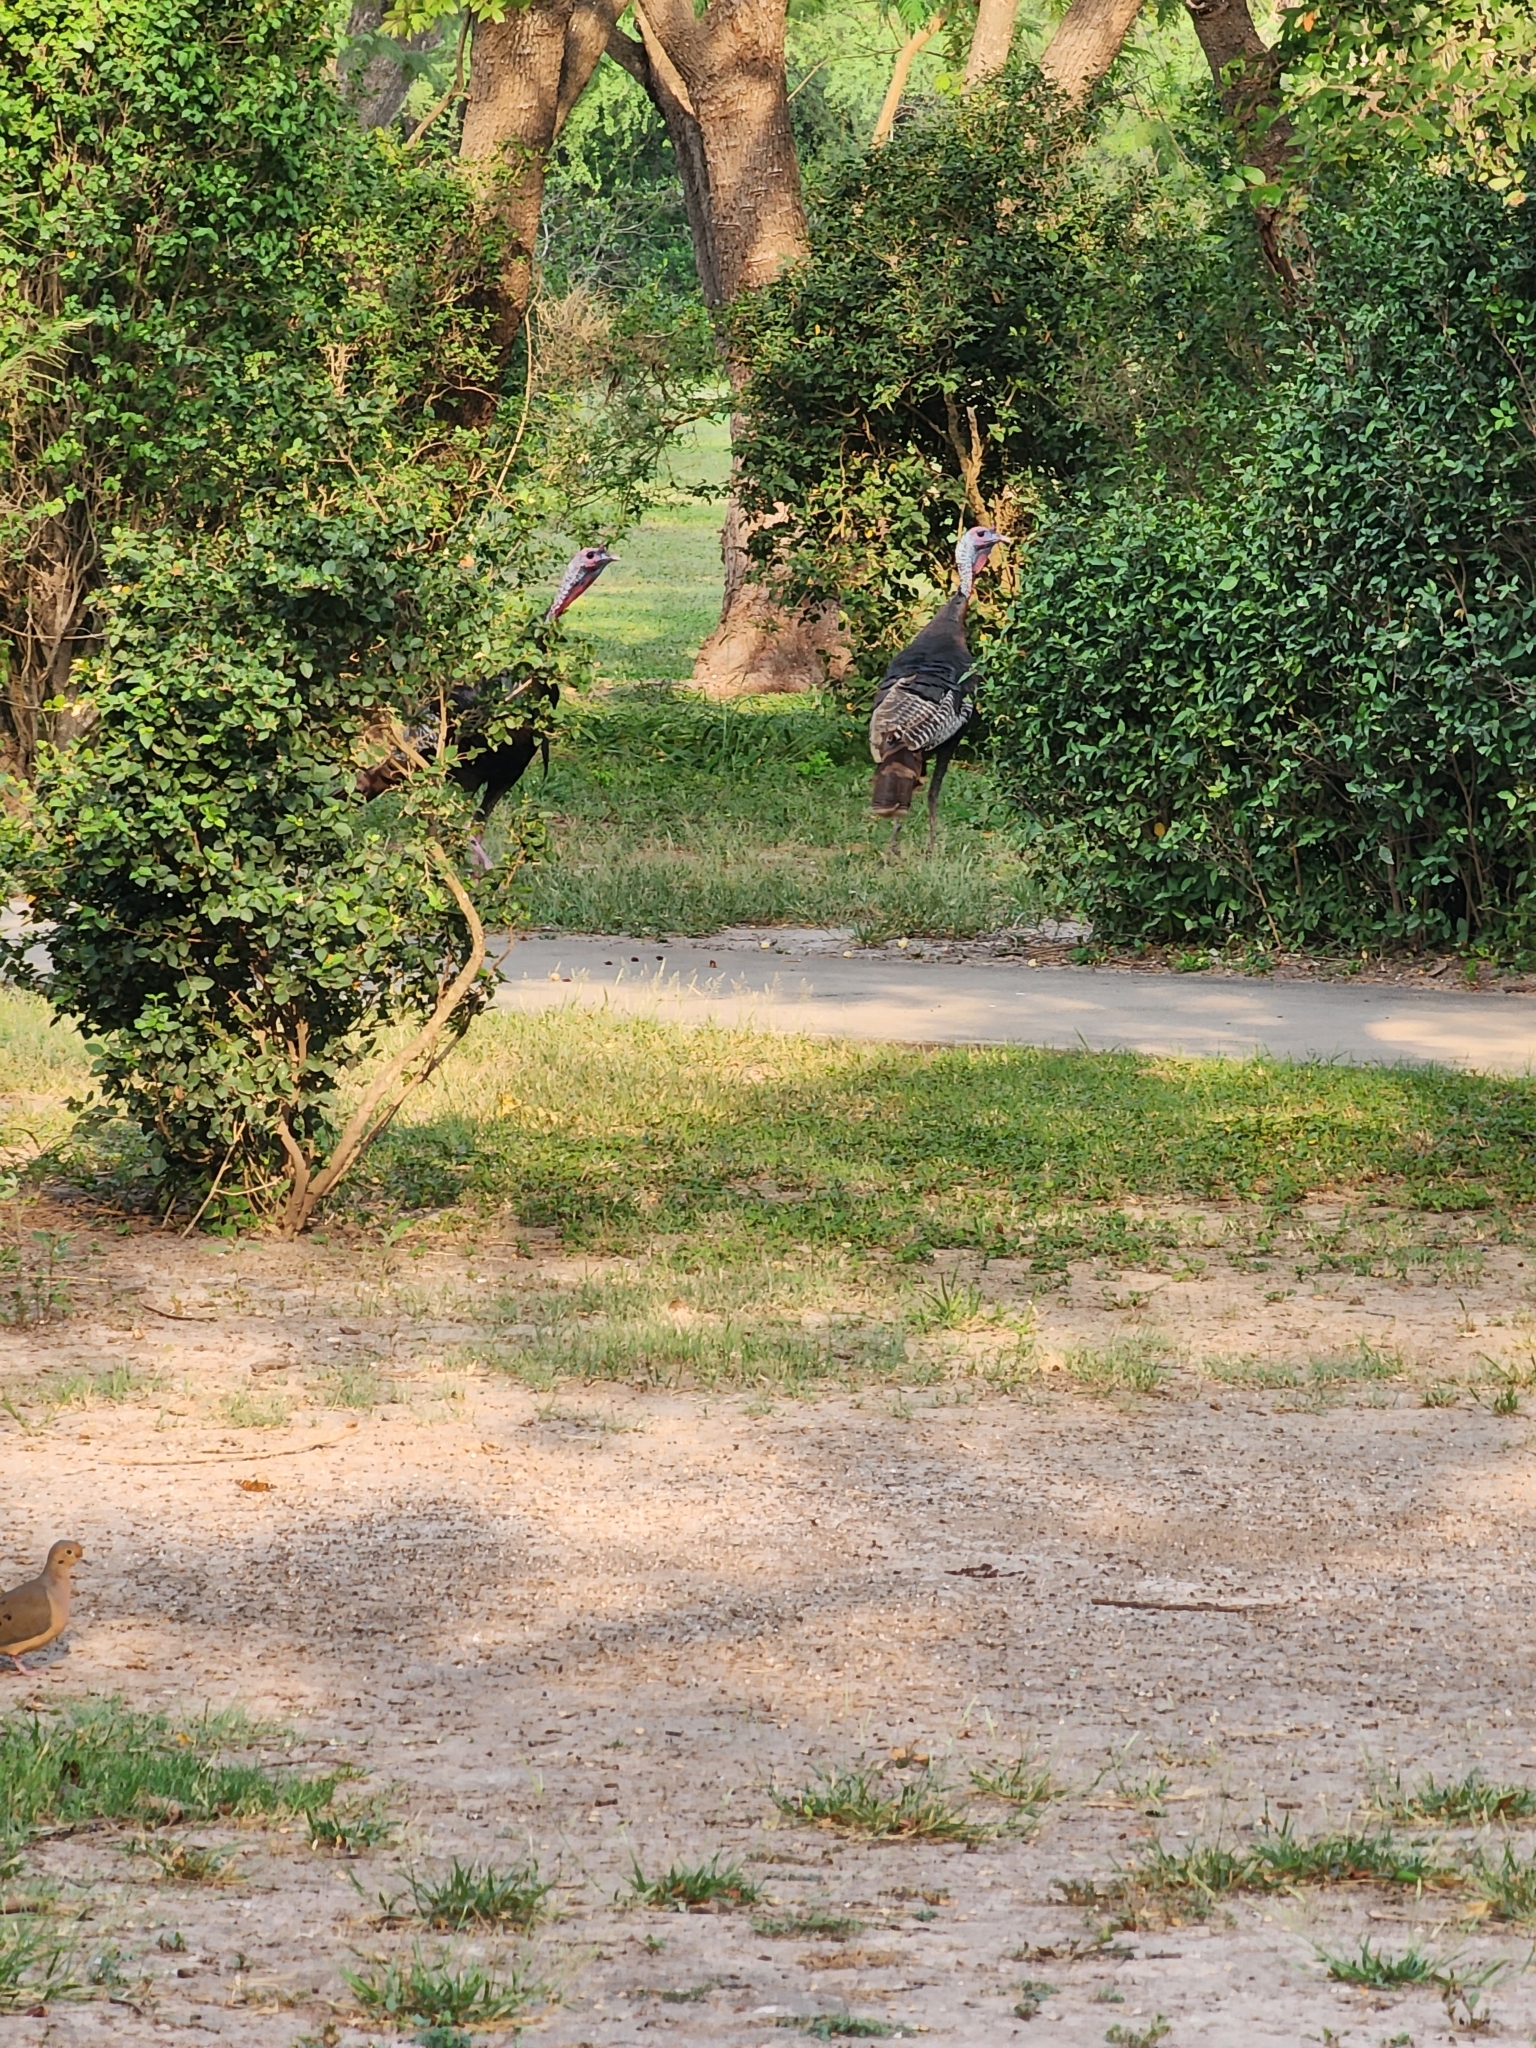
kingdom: Animalia
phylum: Chordata
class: Aves
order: Galliformes
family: Phasianidae
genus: Meleagris
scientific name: Meleagris gallopavo
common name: Wild turkey
